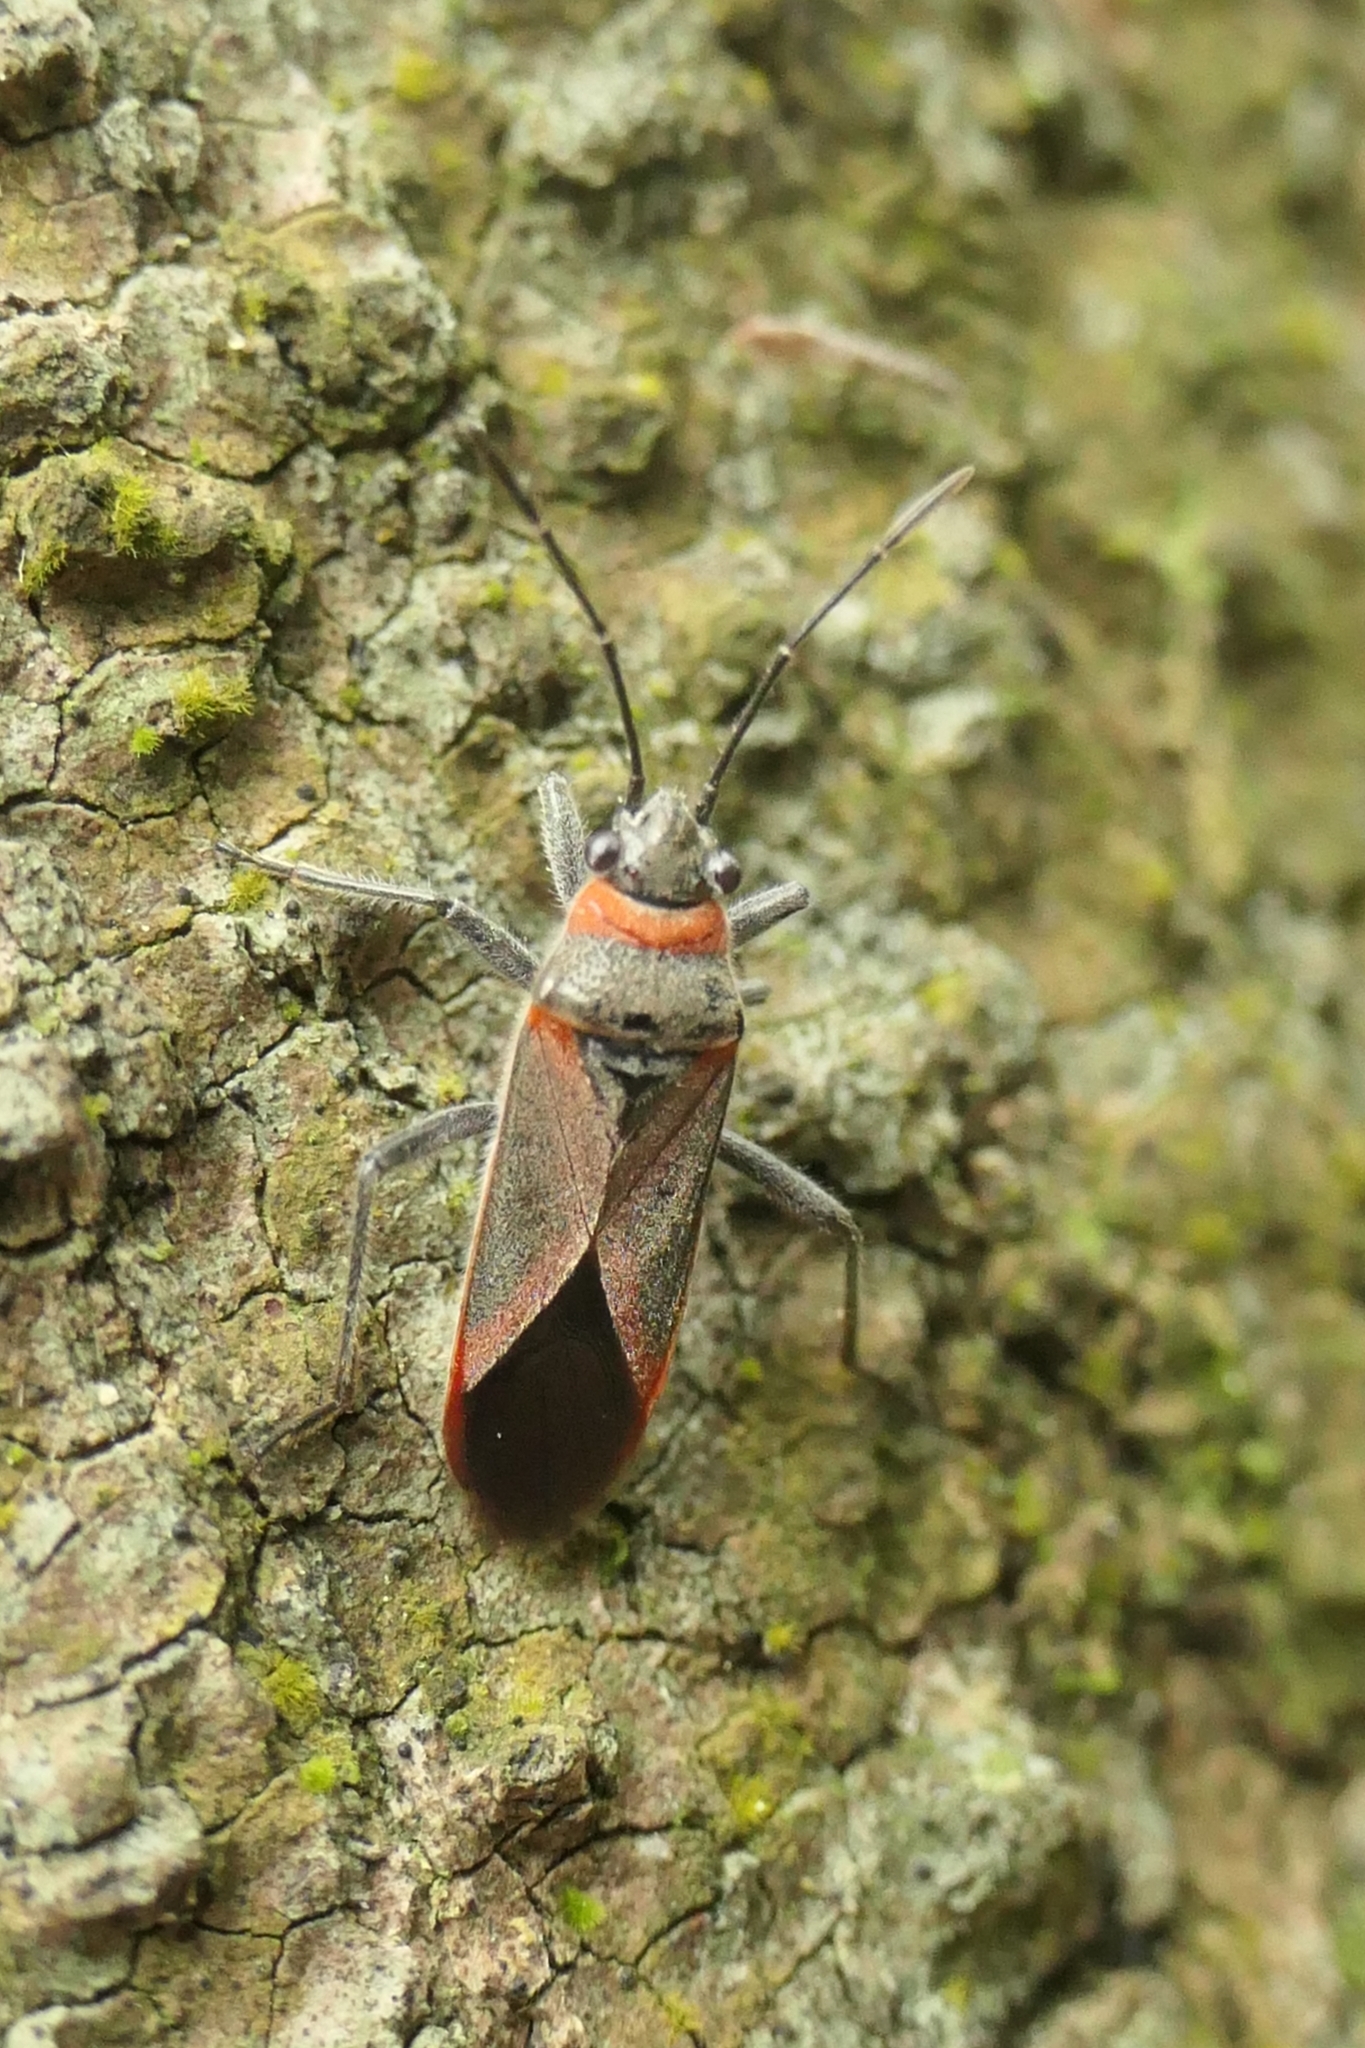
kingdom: Animalia
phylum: Arthropoda
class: Insecta
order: Hemiptera
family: Lygaeidae
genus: Arocatus
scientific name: Arocatus rusticus
